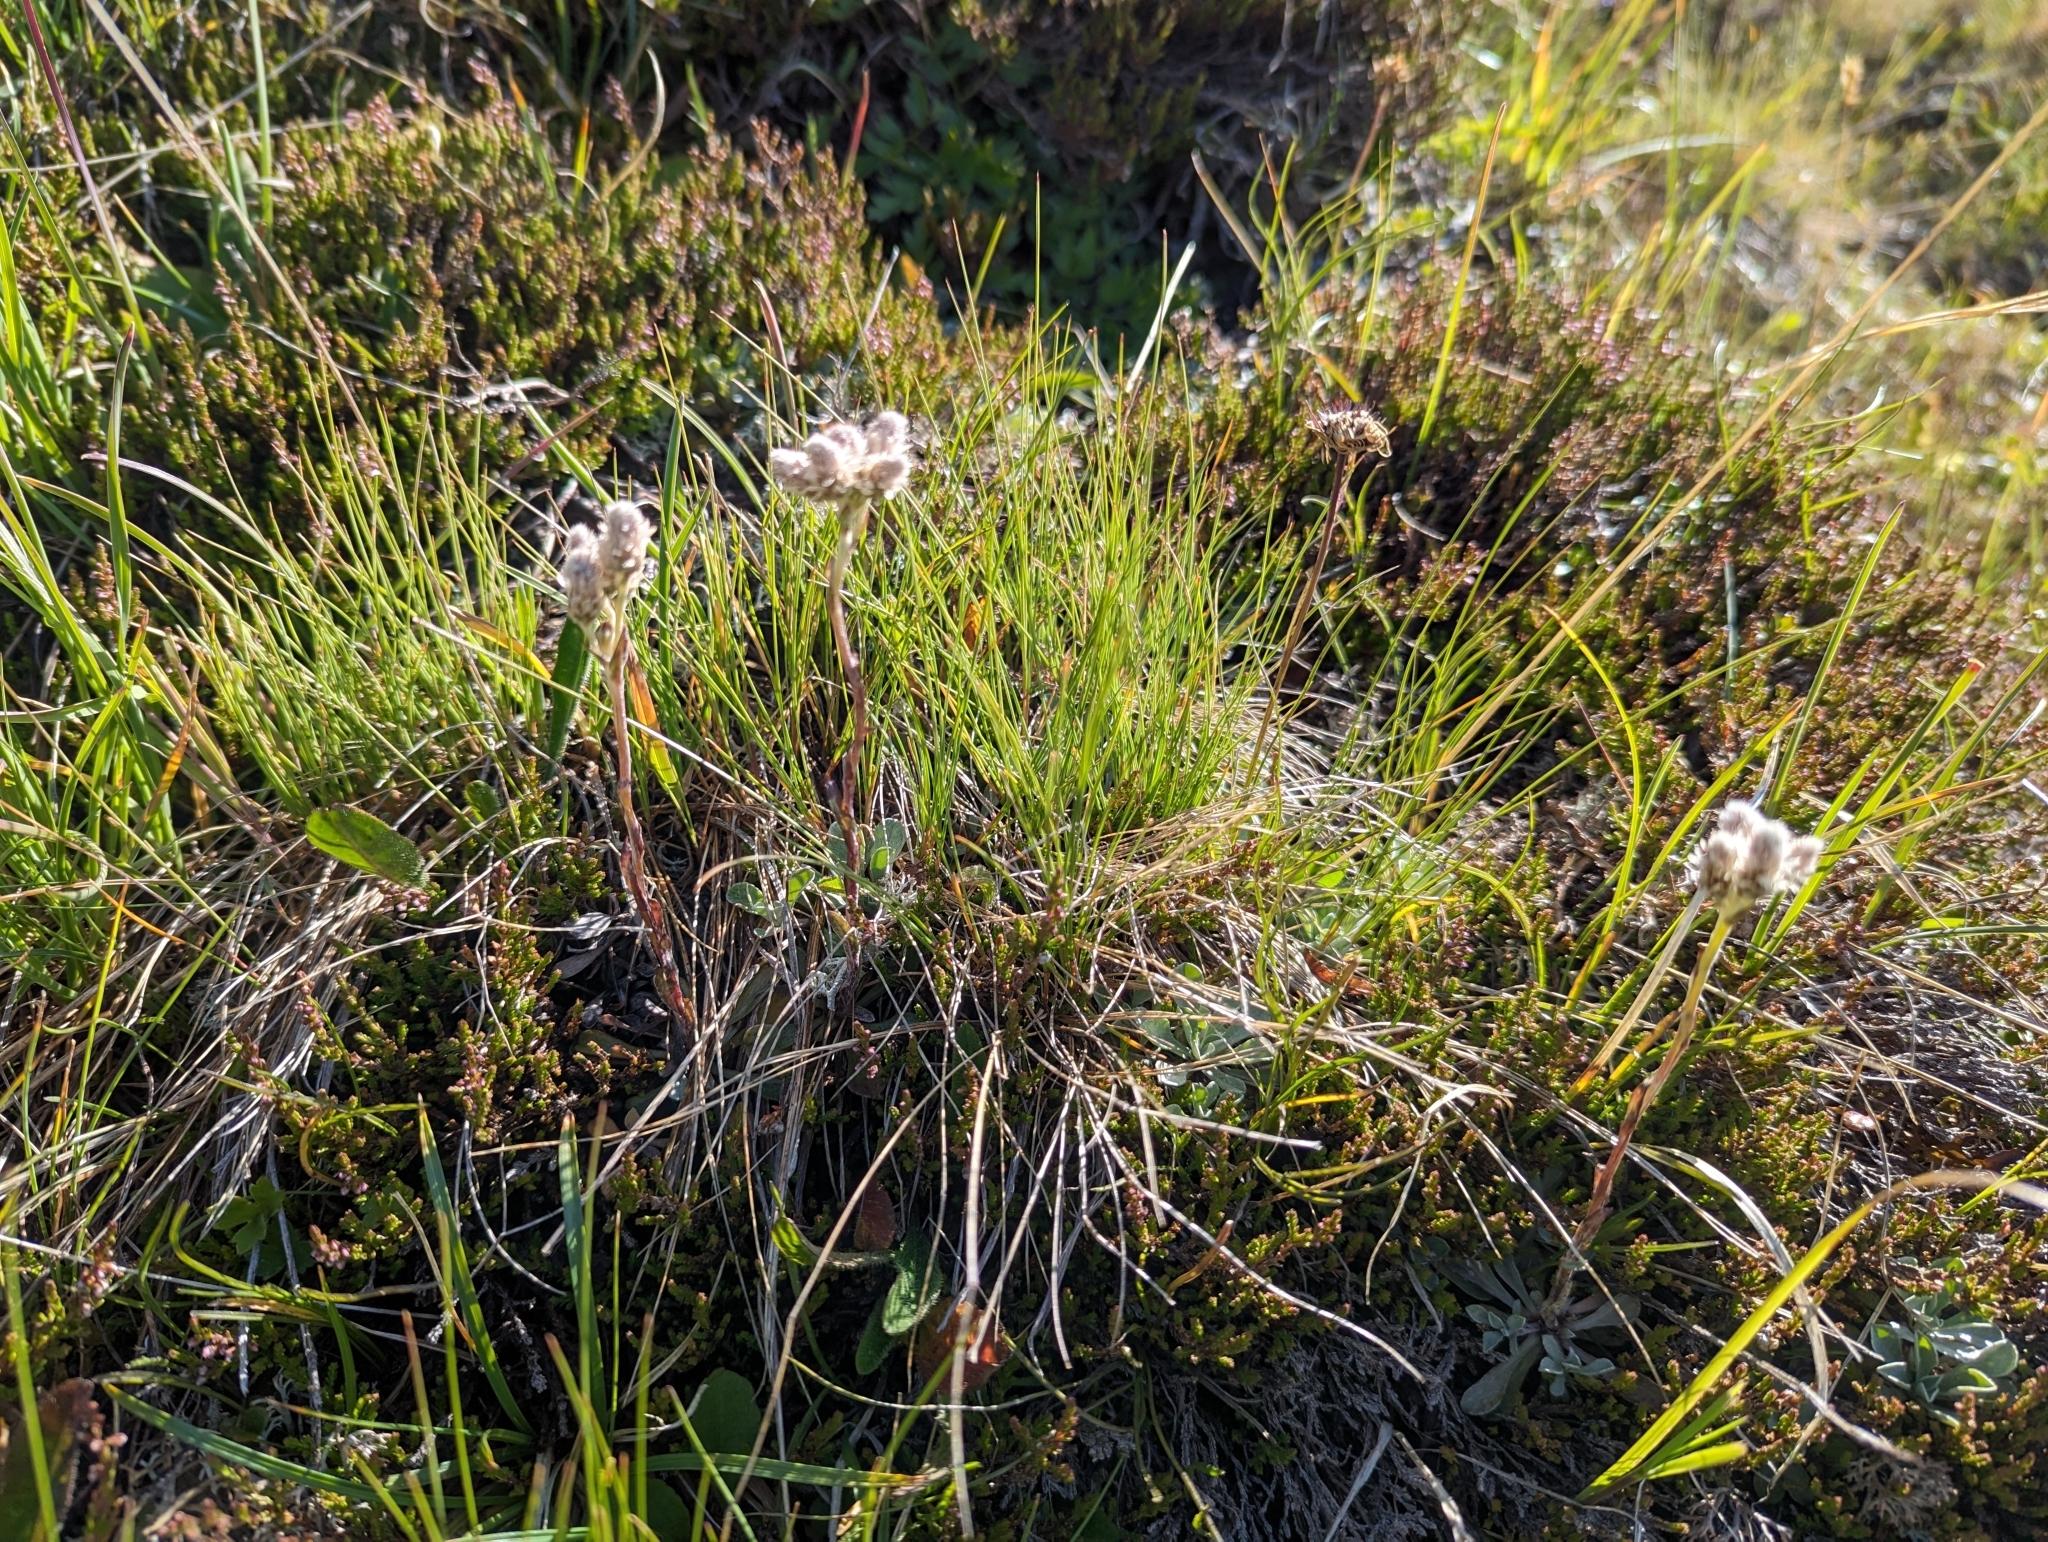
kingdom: Plantae
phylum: Tracheophyta
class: Magnoliopsida
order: Asterales
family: Asteraceae
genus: Antennaria
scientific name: Antennaria dioica
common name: Mountain everlasting
